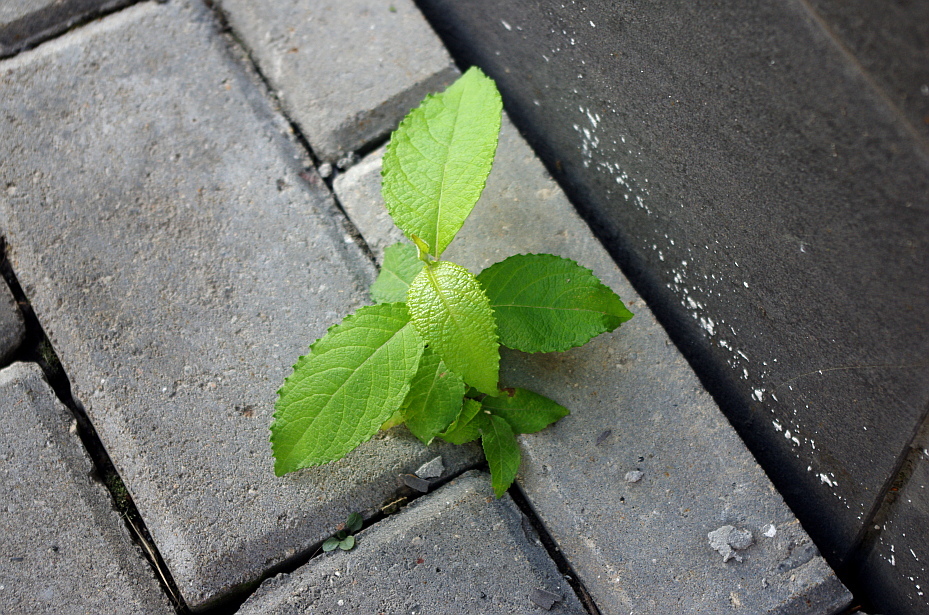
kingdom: Plantae
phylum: Tracheophyta
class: Magnoliopsida
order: Malpighiales
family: Salicaceae
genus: Salix
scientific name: Salix caprea
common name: Goat willow
